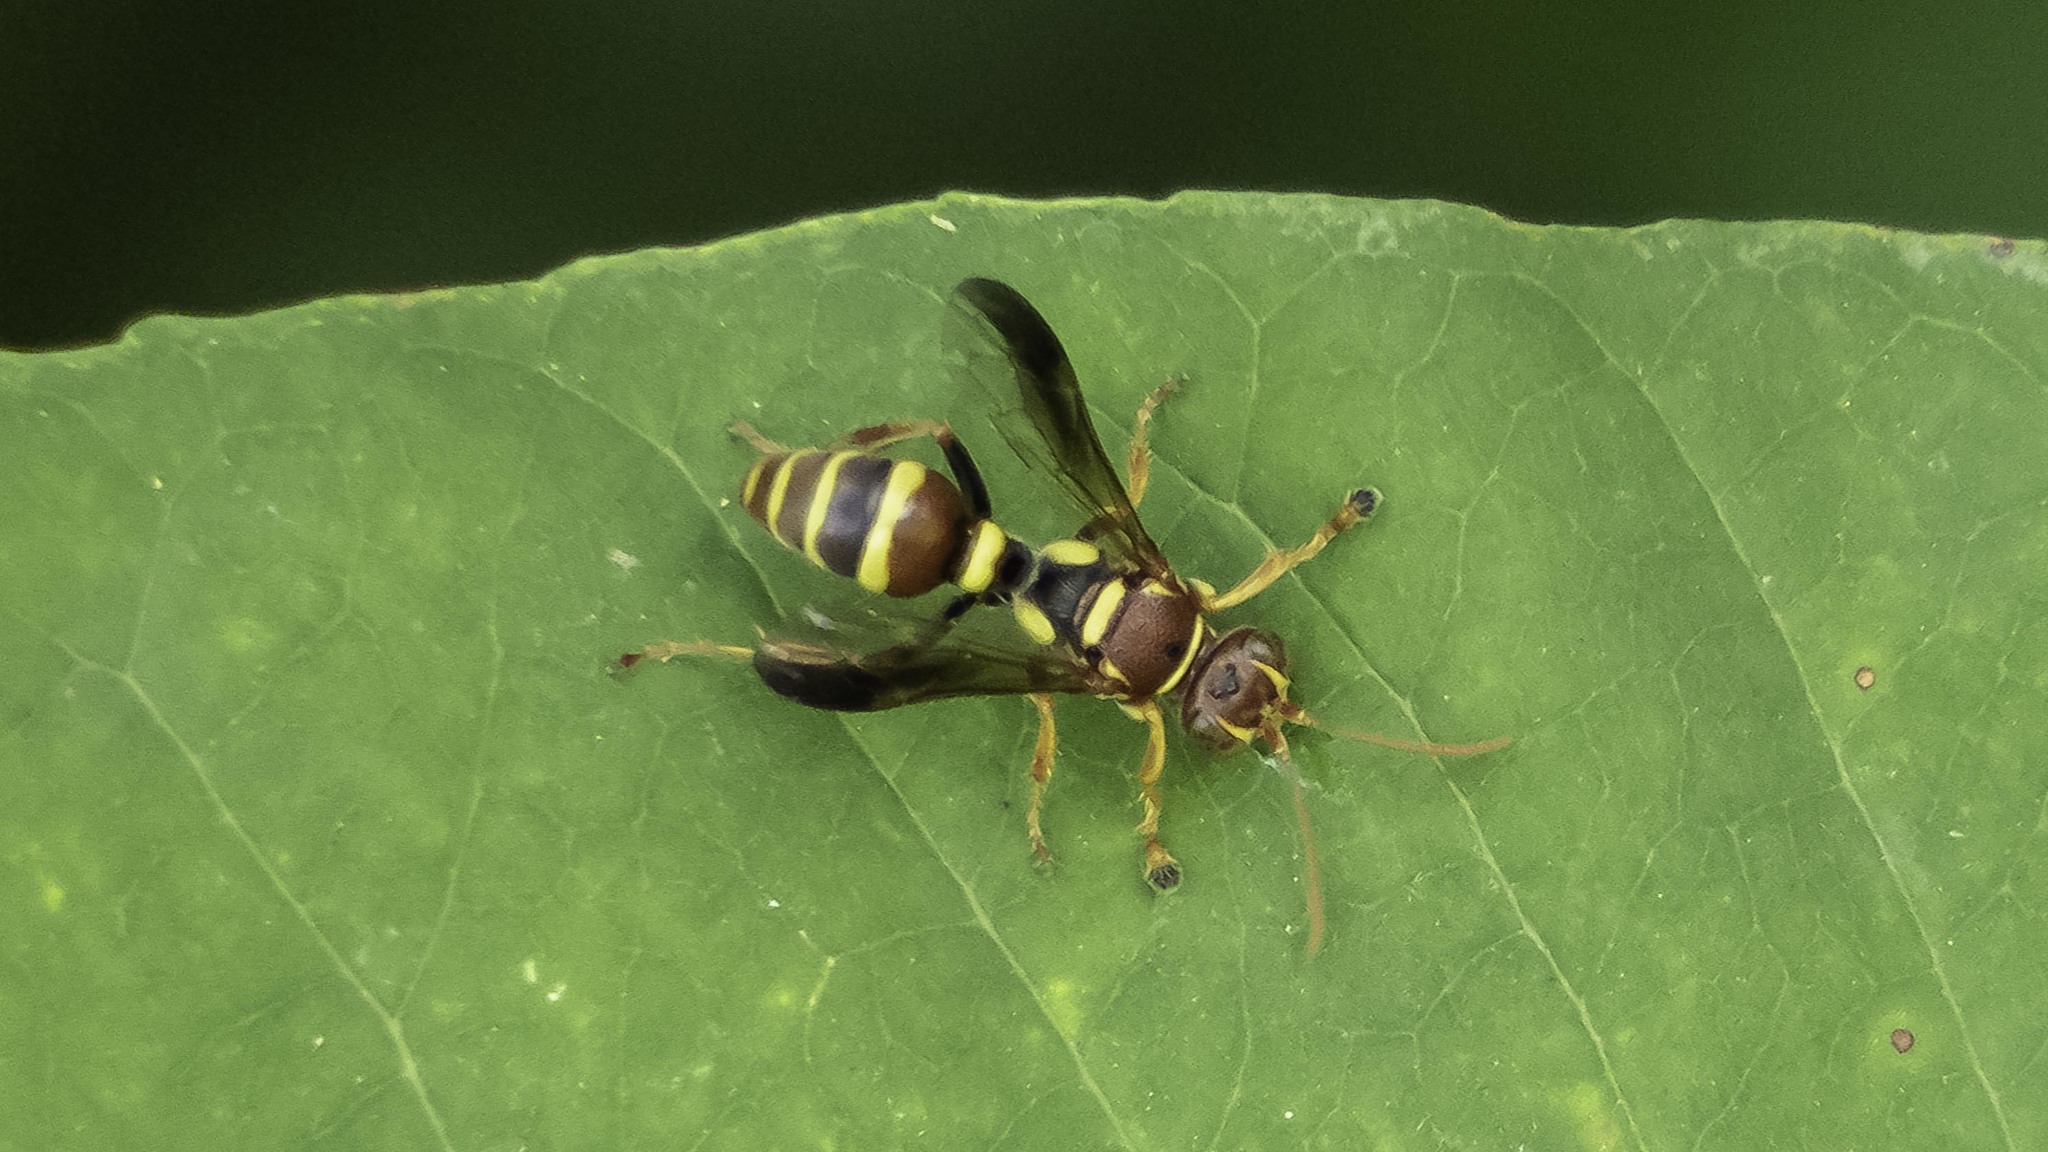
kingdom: Animalia
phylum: Arthropoda
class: Insecta
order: Hymenoptera
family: Crabronidae
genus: Psammaletes
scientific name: Psammaletes mexicanus
